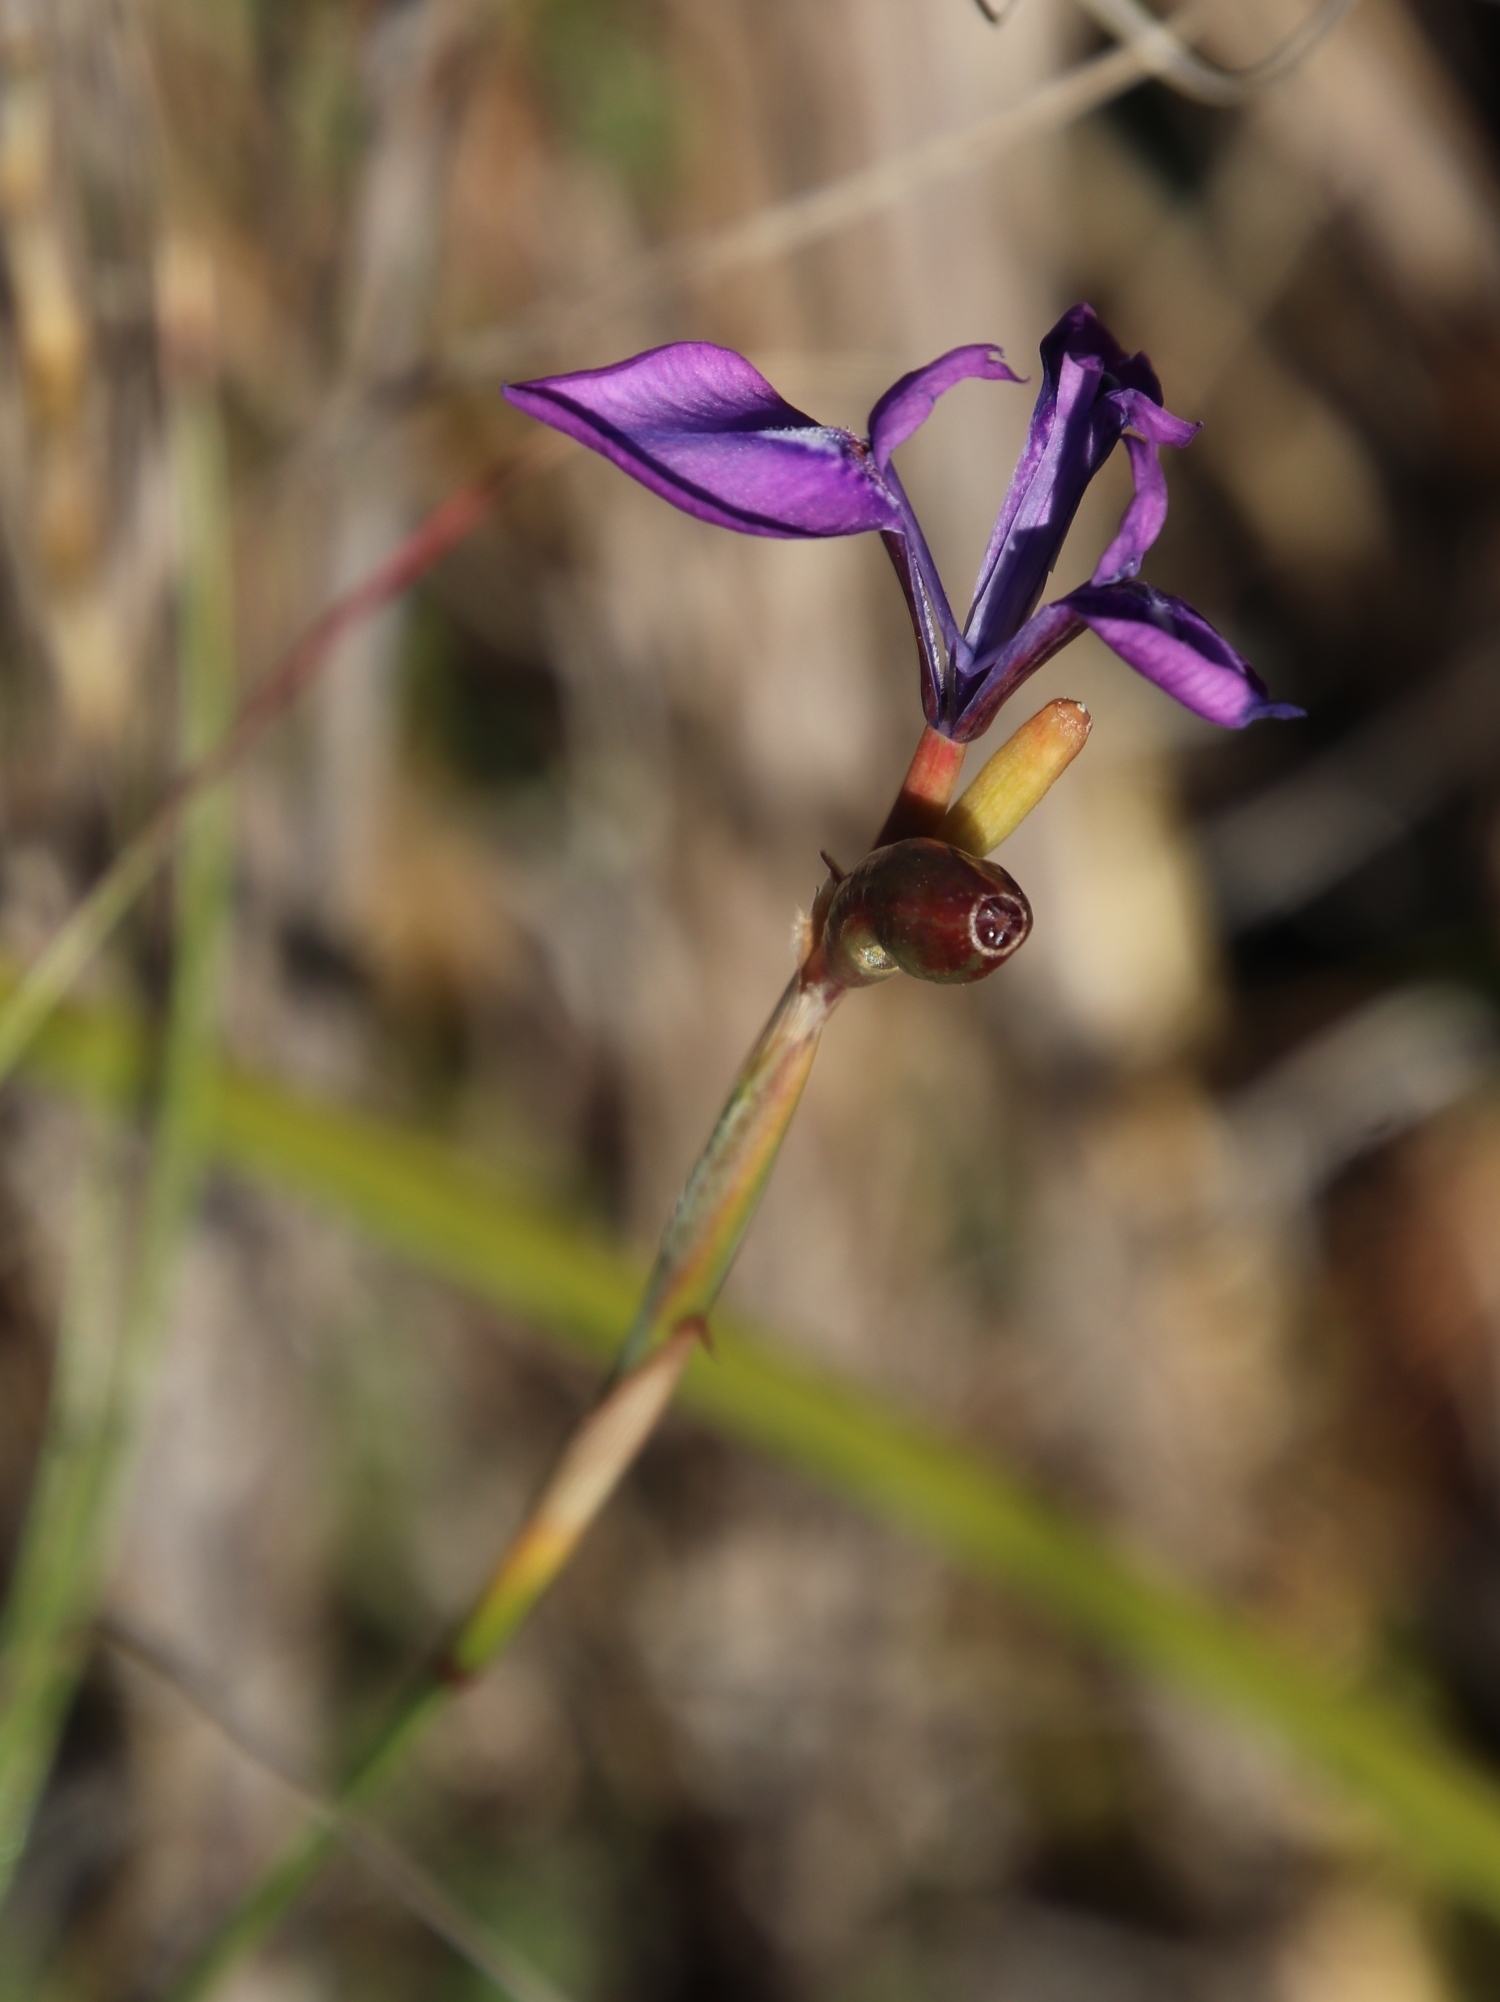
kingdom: Plantae
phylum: Tracheophyta
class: Liliopsida
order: Asparagales
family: Iridaceae
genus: Moraea
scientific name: Moraea tripetala
